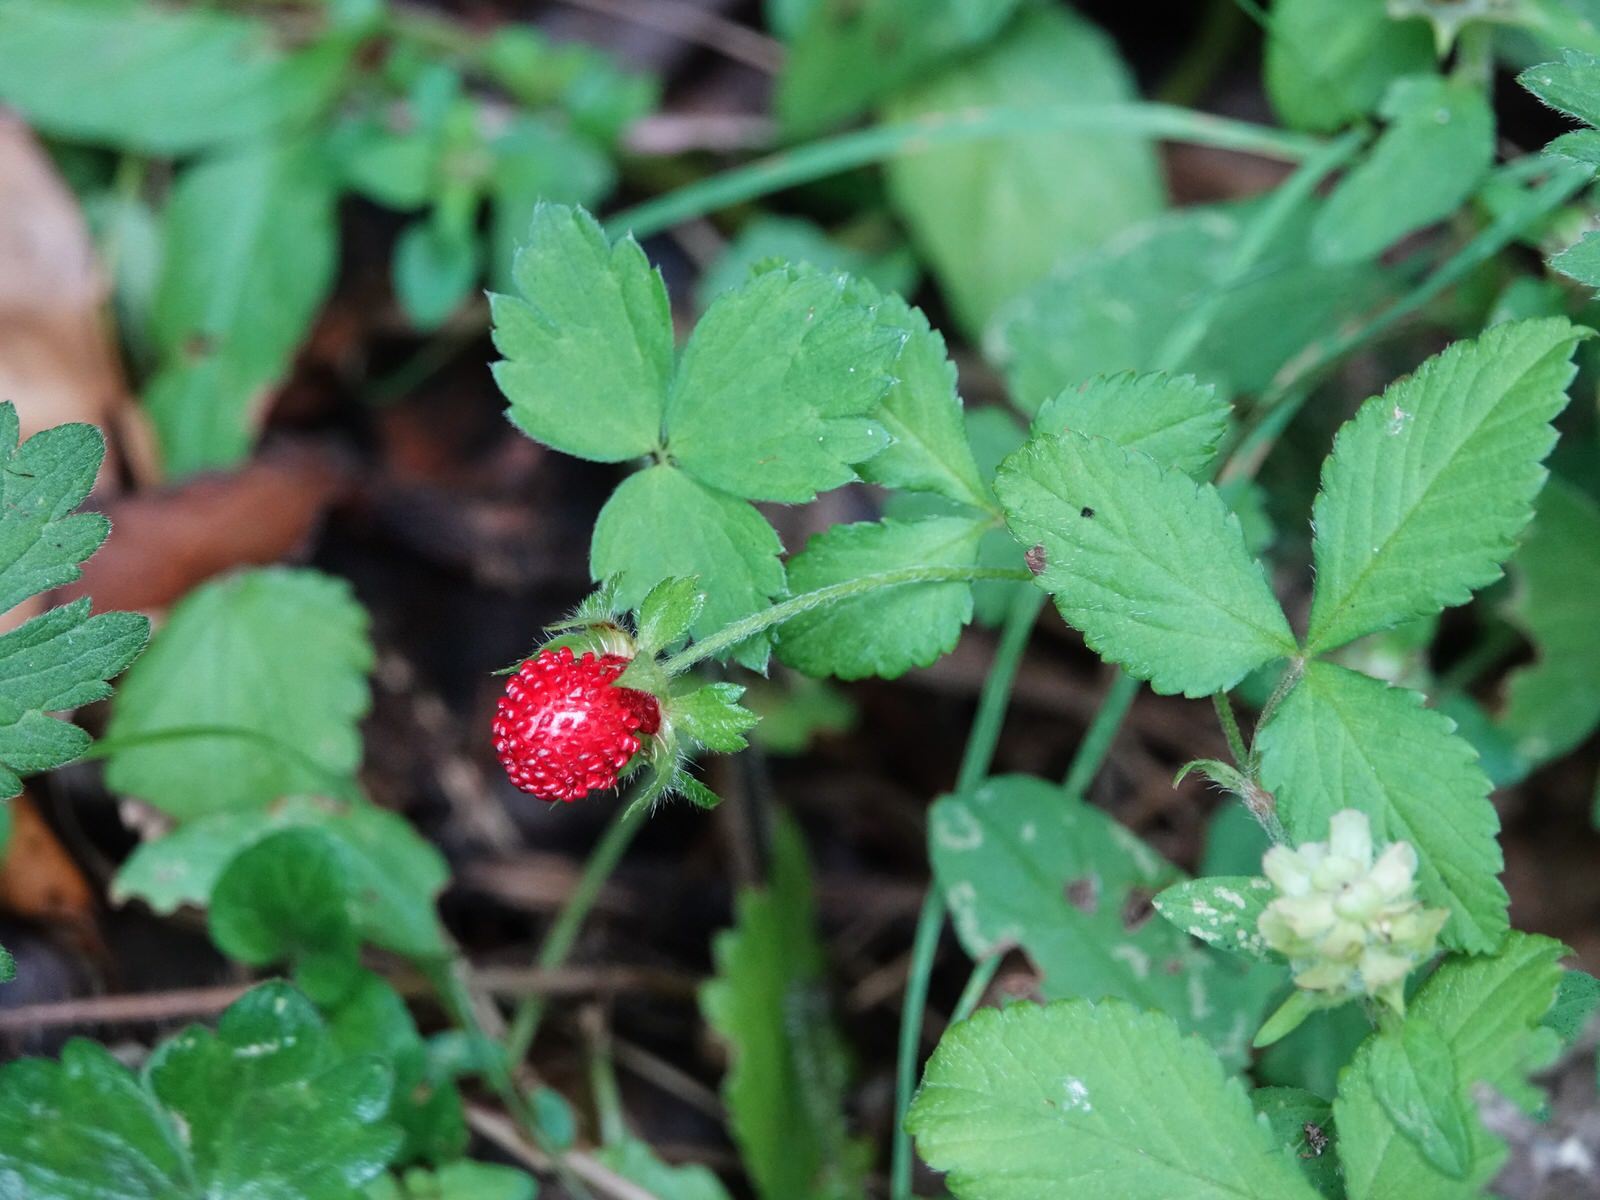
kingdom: Plantae
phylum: Tracheophyta
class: Magnoliopsida
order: Rosales
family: Rosaceae
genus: Potentilla
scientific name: Potentilla indica
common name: Yellow-flowered strawberry
